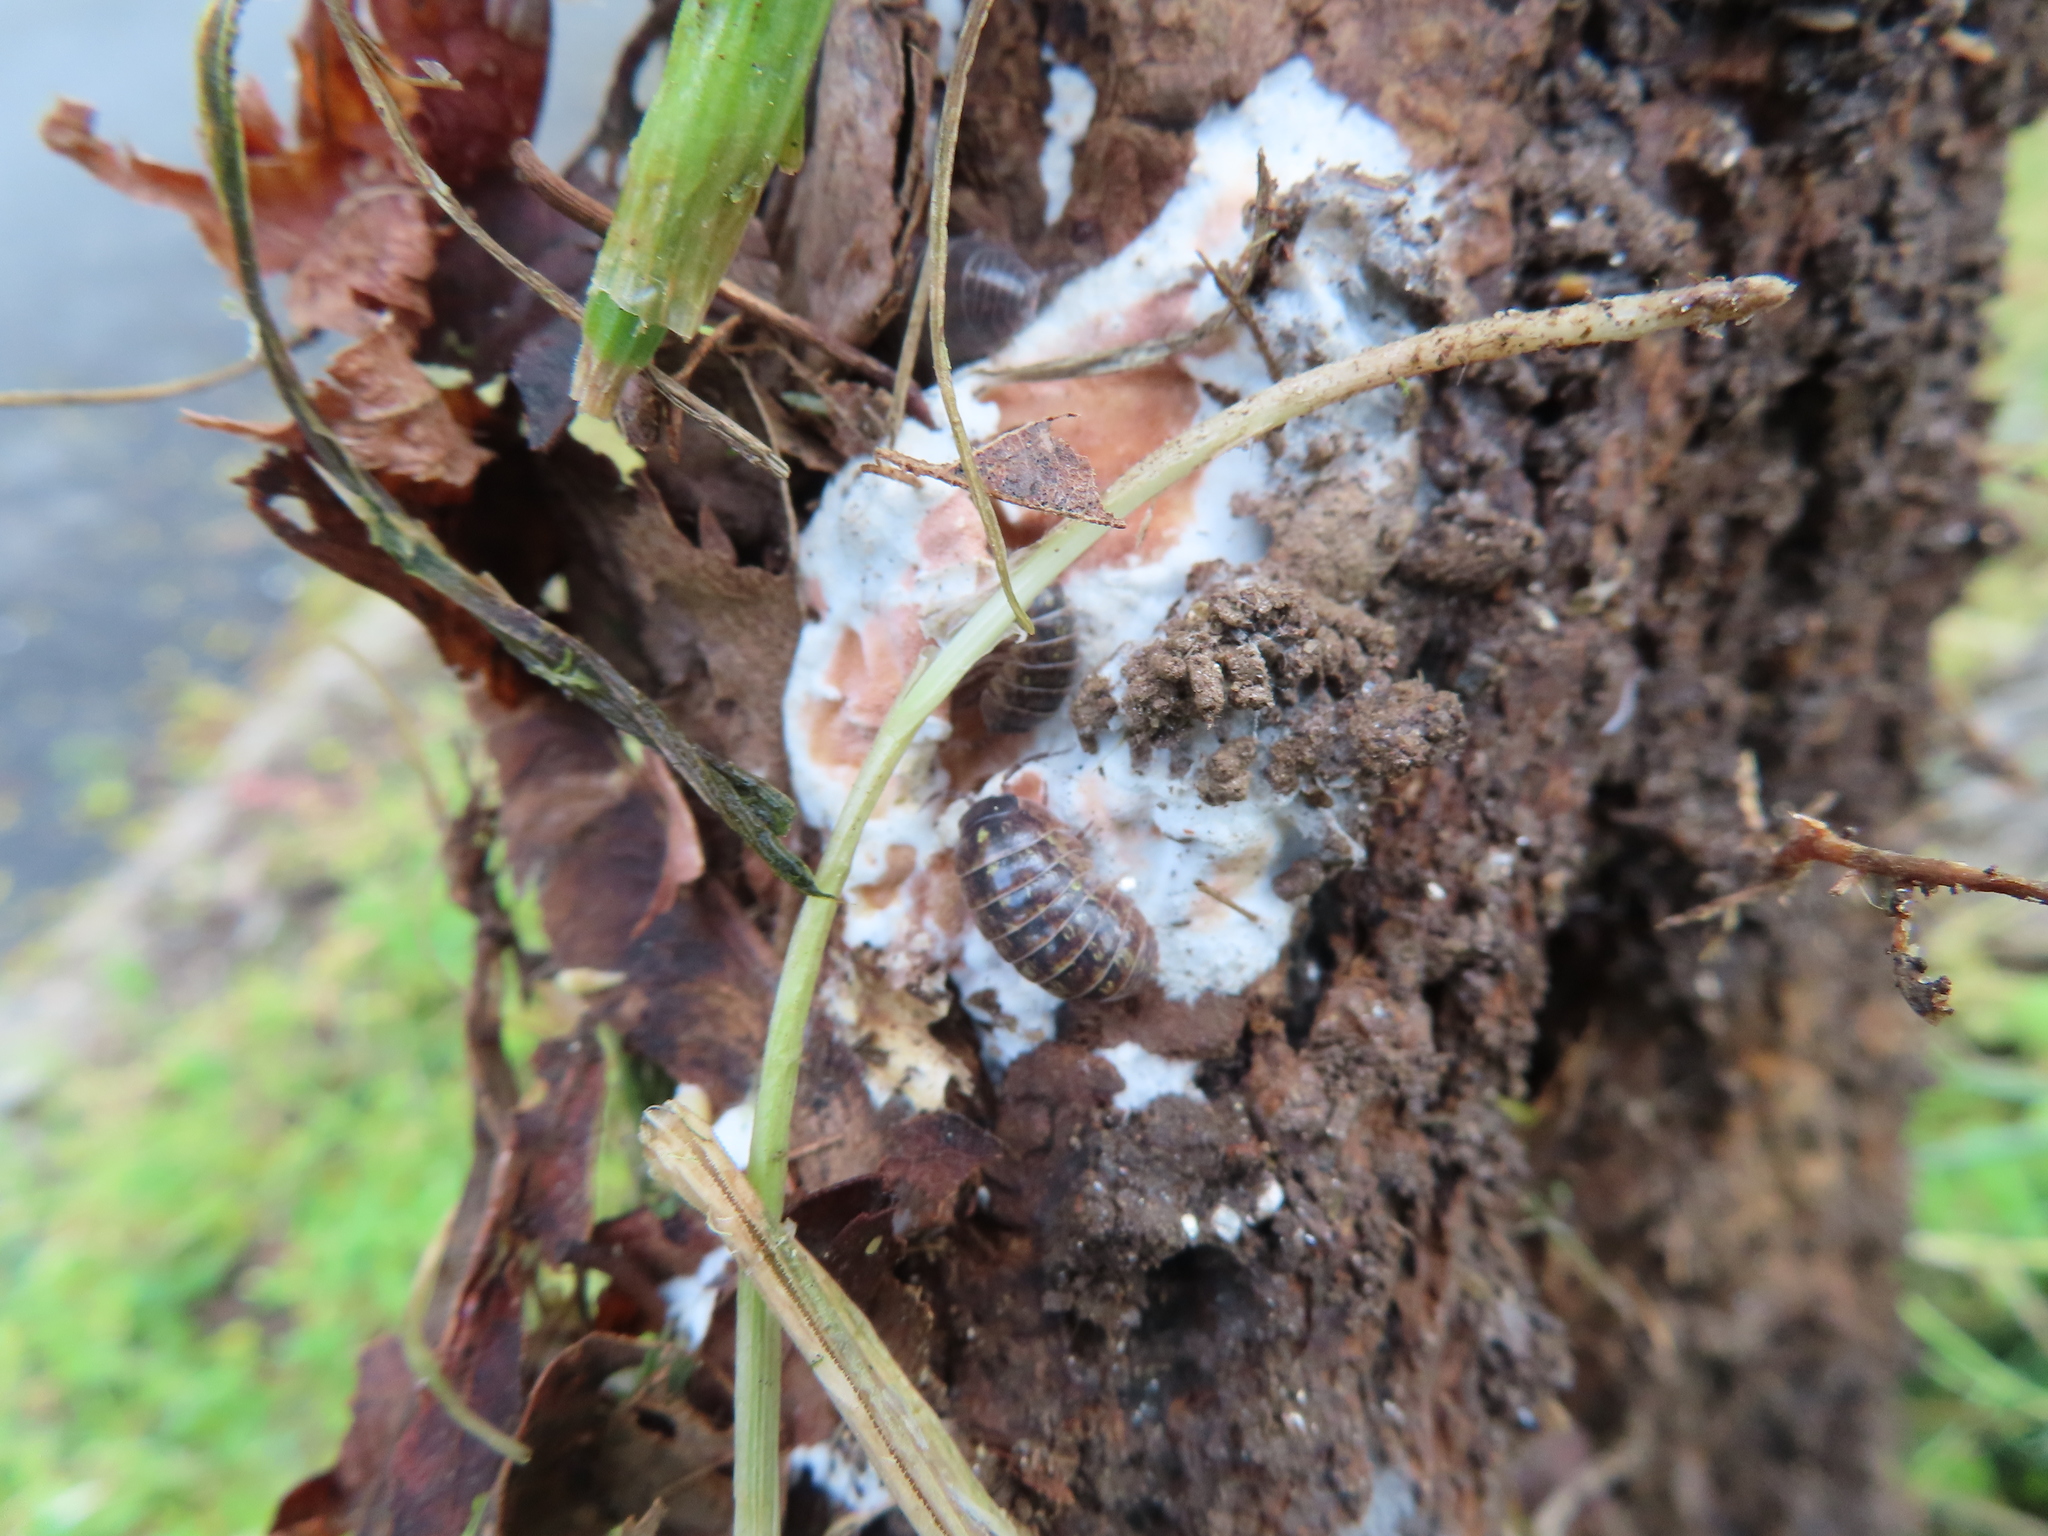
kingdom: Animalia
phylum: Arthropoda
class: Malacostraca
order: Isopoda
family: Armadillidiidae
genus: Armadillidium
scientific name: Armadillidium vulgare
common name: Common pill woodlouse
